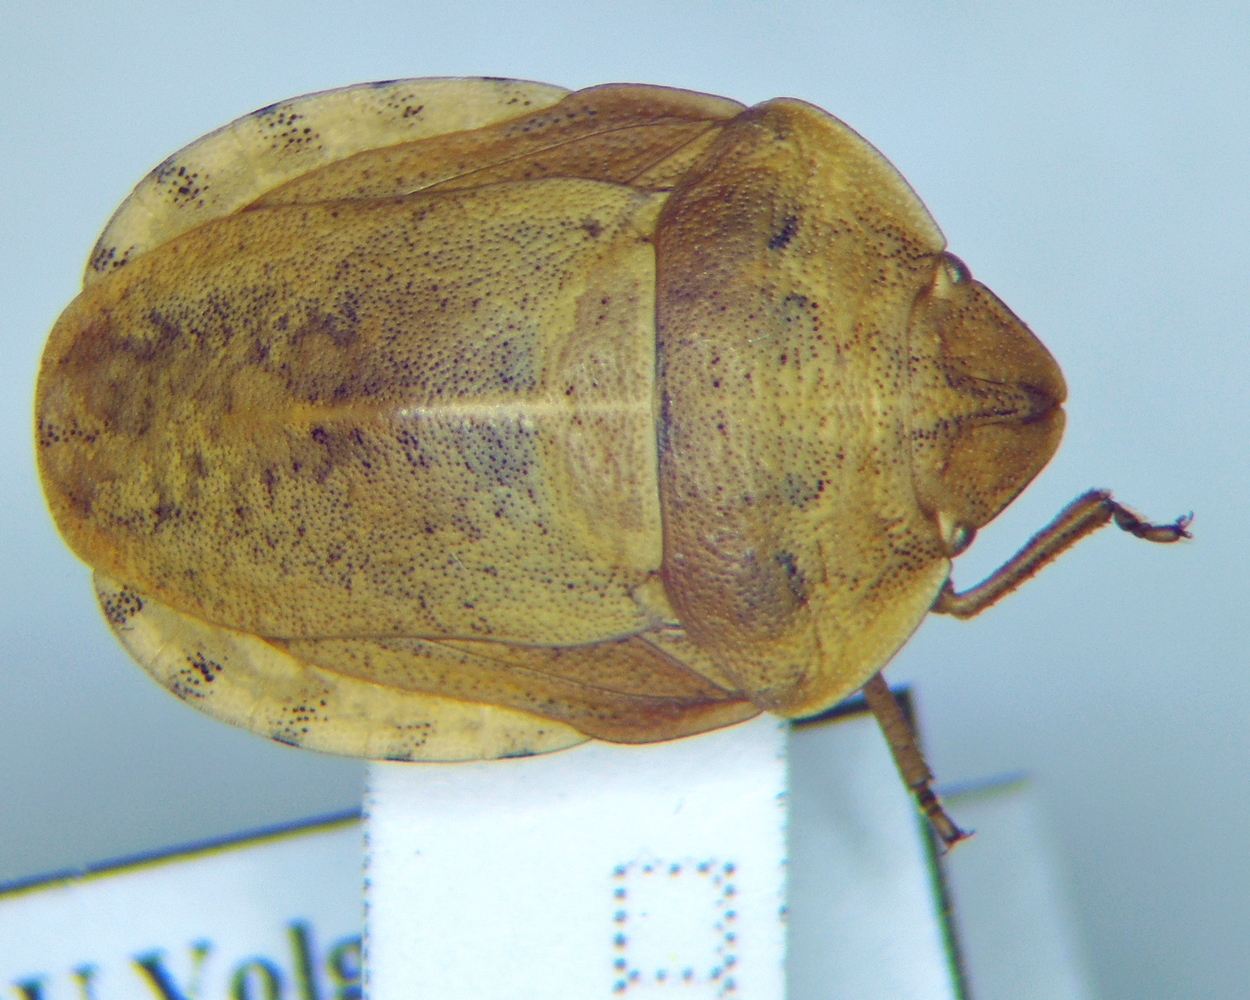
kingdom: Animalia
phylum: Arthropoda
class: Insecta
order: Hemiptera
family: Scutelleridae
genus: Eurygaster
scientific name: Eurygaster dilaticollis
